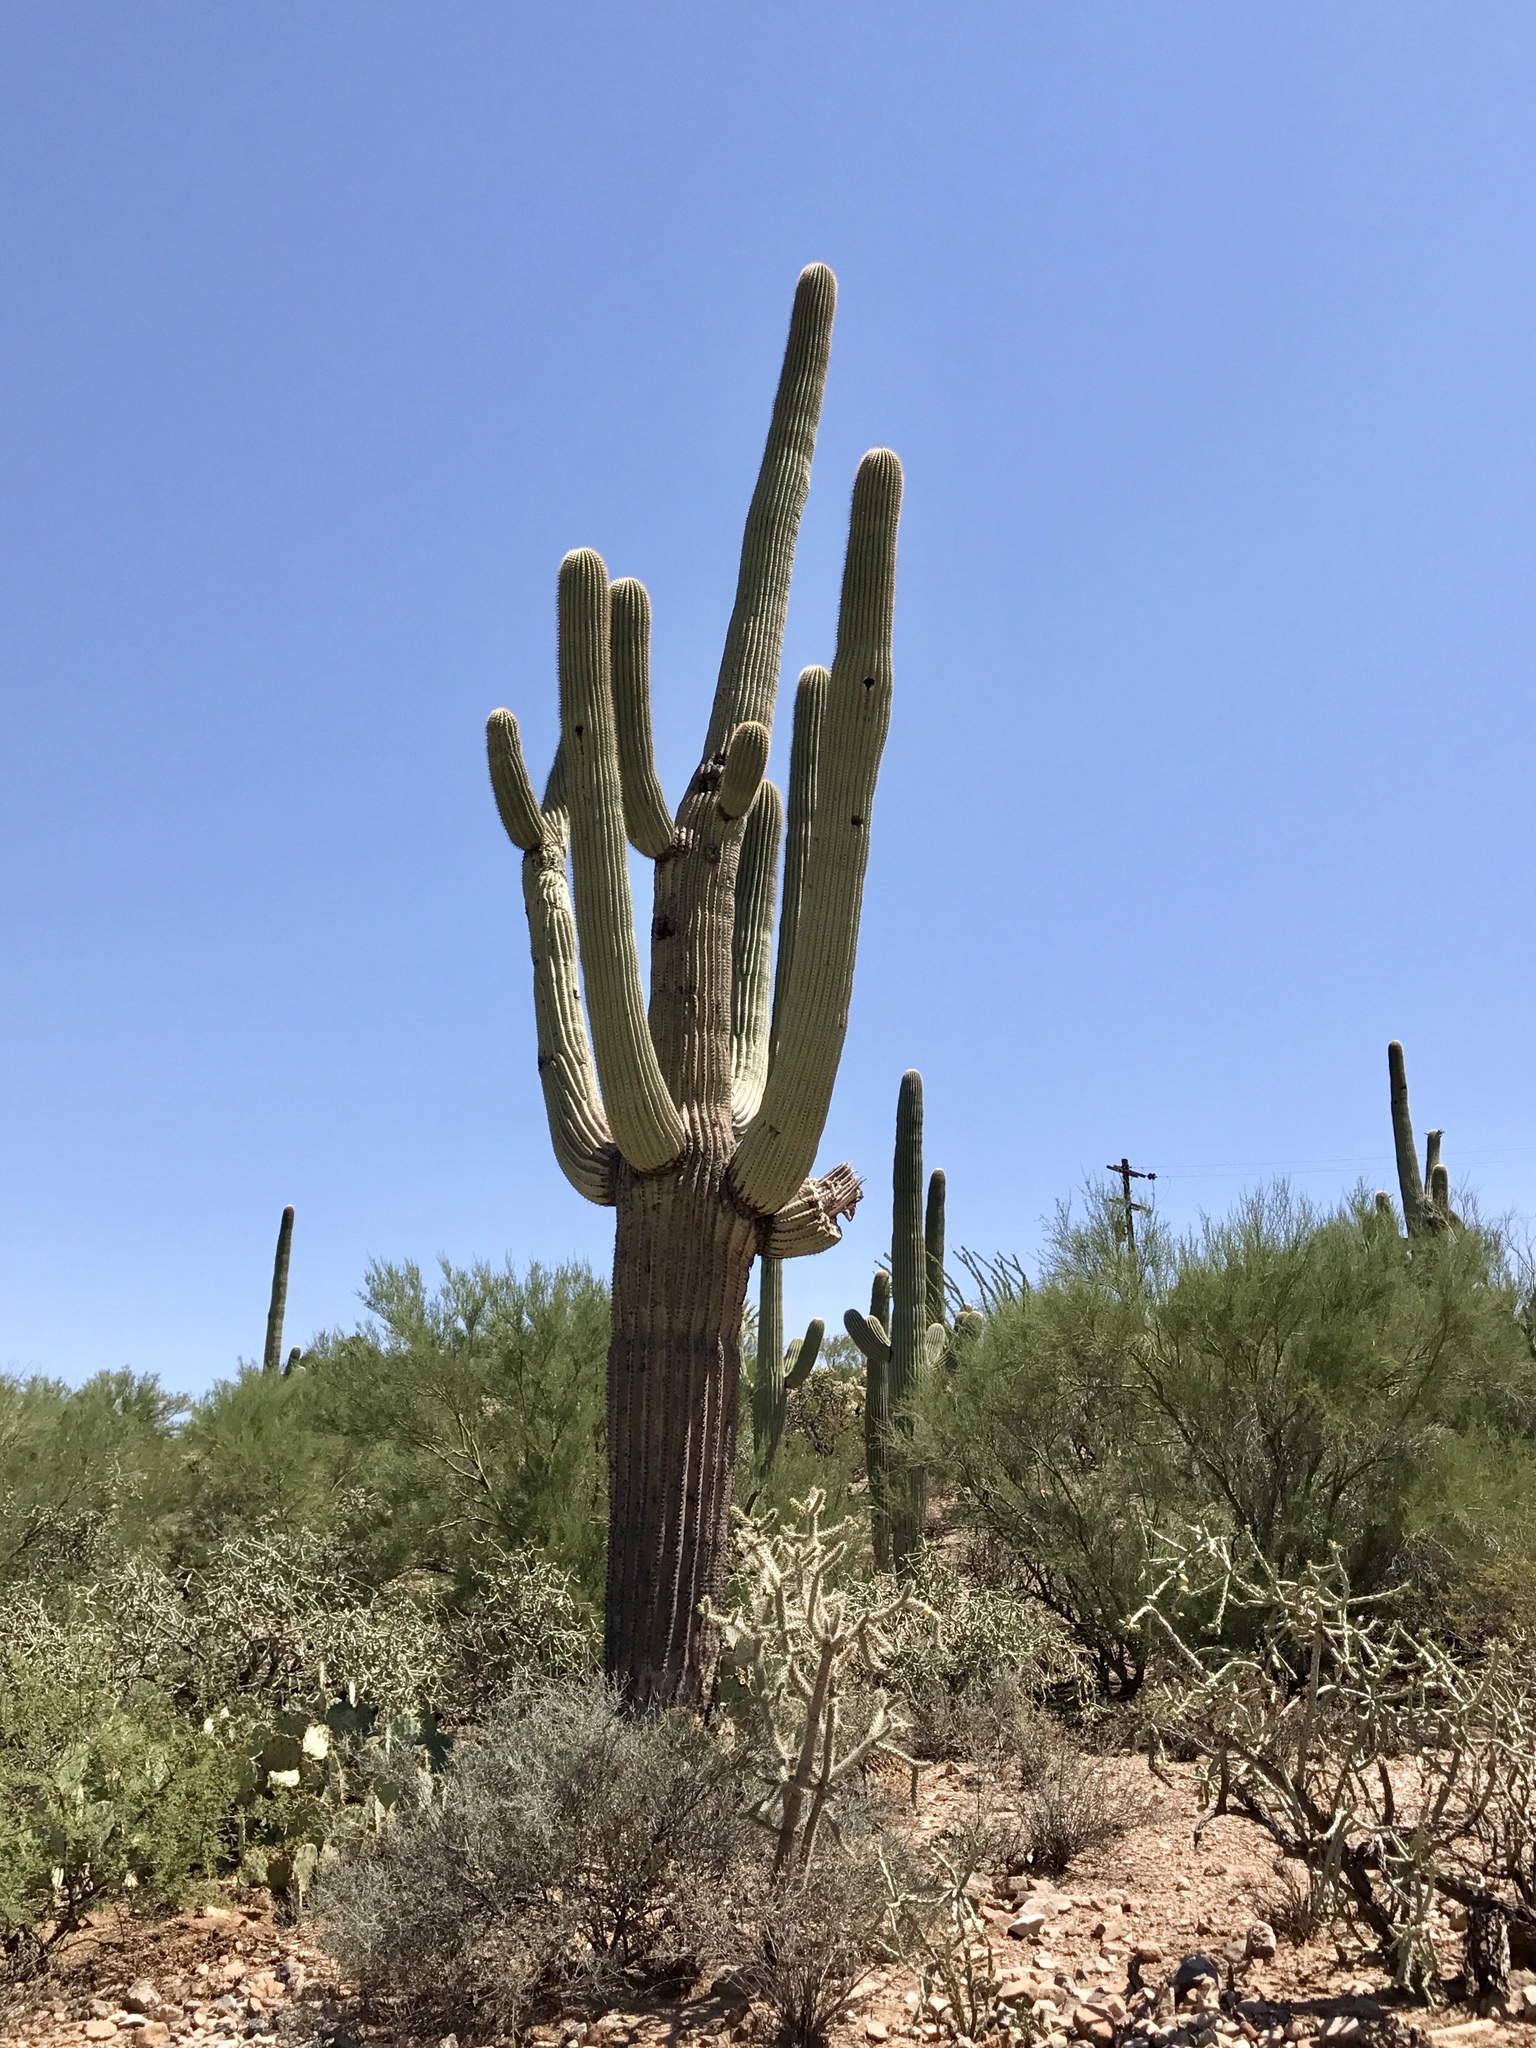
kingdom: Plantae
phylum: Tracheophyta
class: Magnoliopsida
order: Caryophyllales
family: Cactaceae
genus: Carnegiea
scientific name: Carnegiea gigantea
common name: Saguaro
